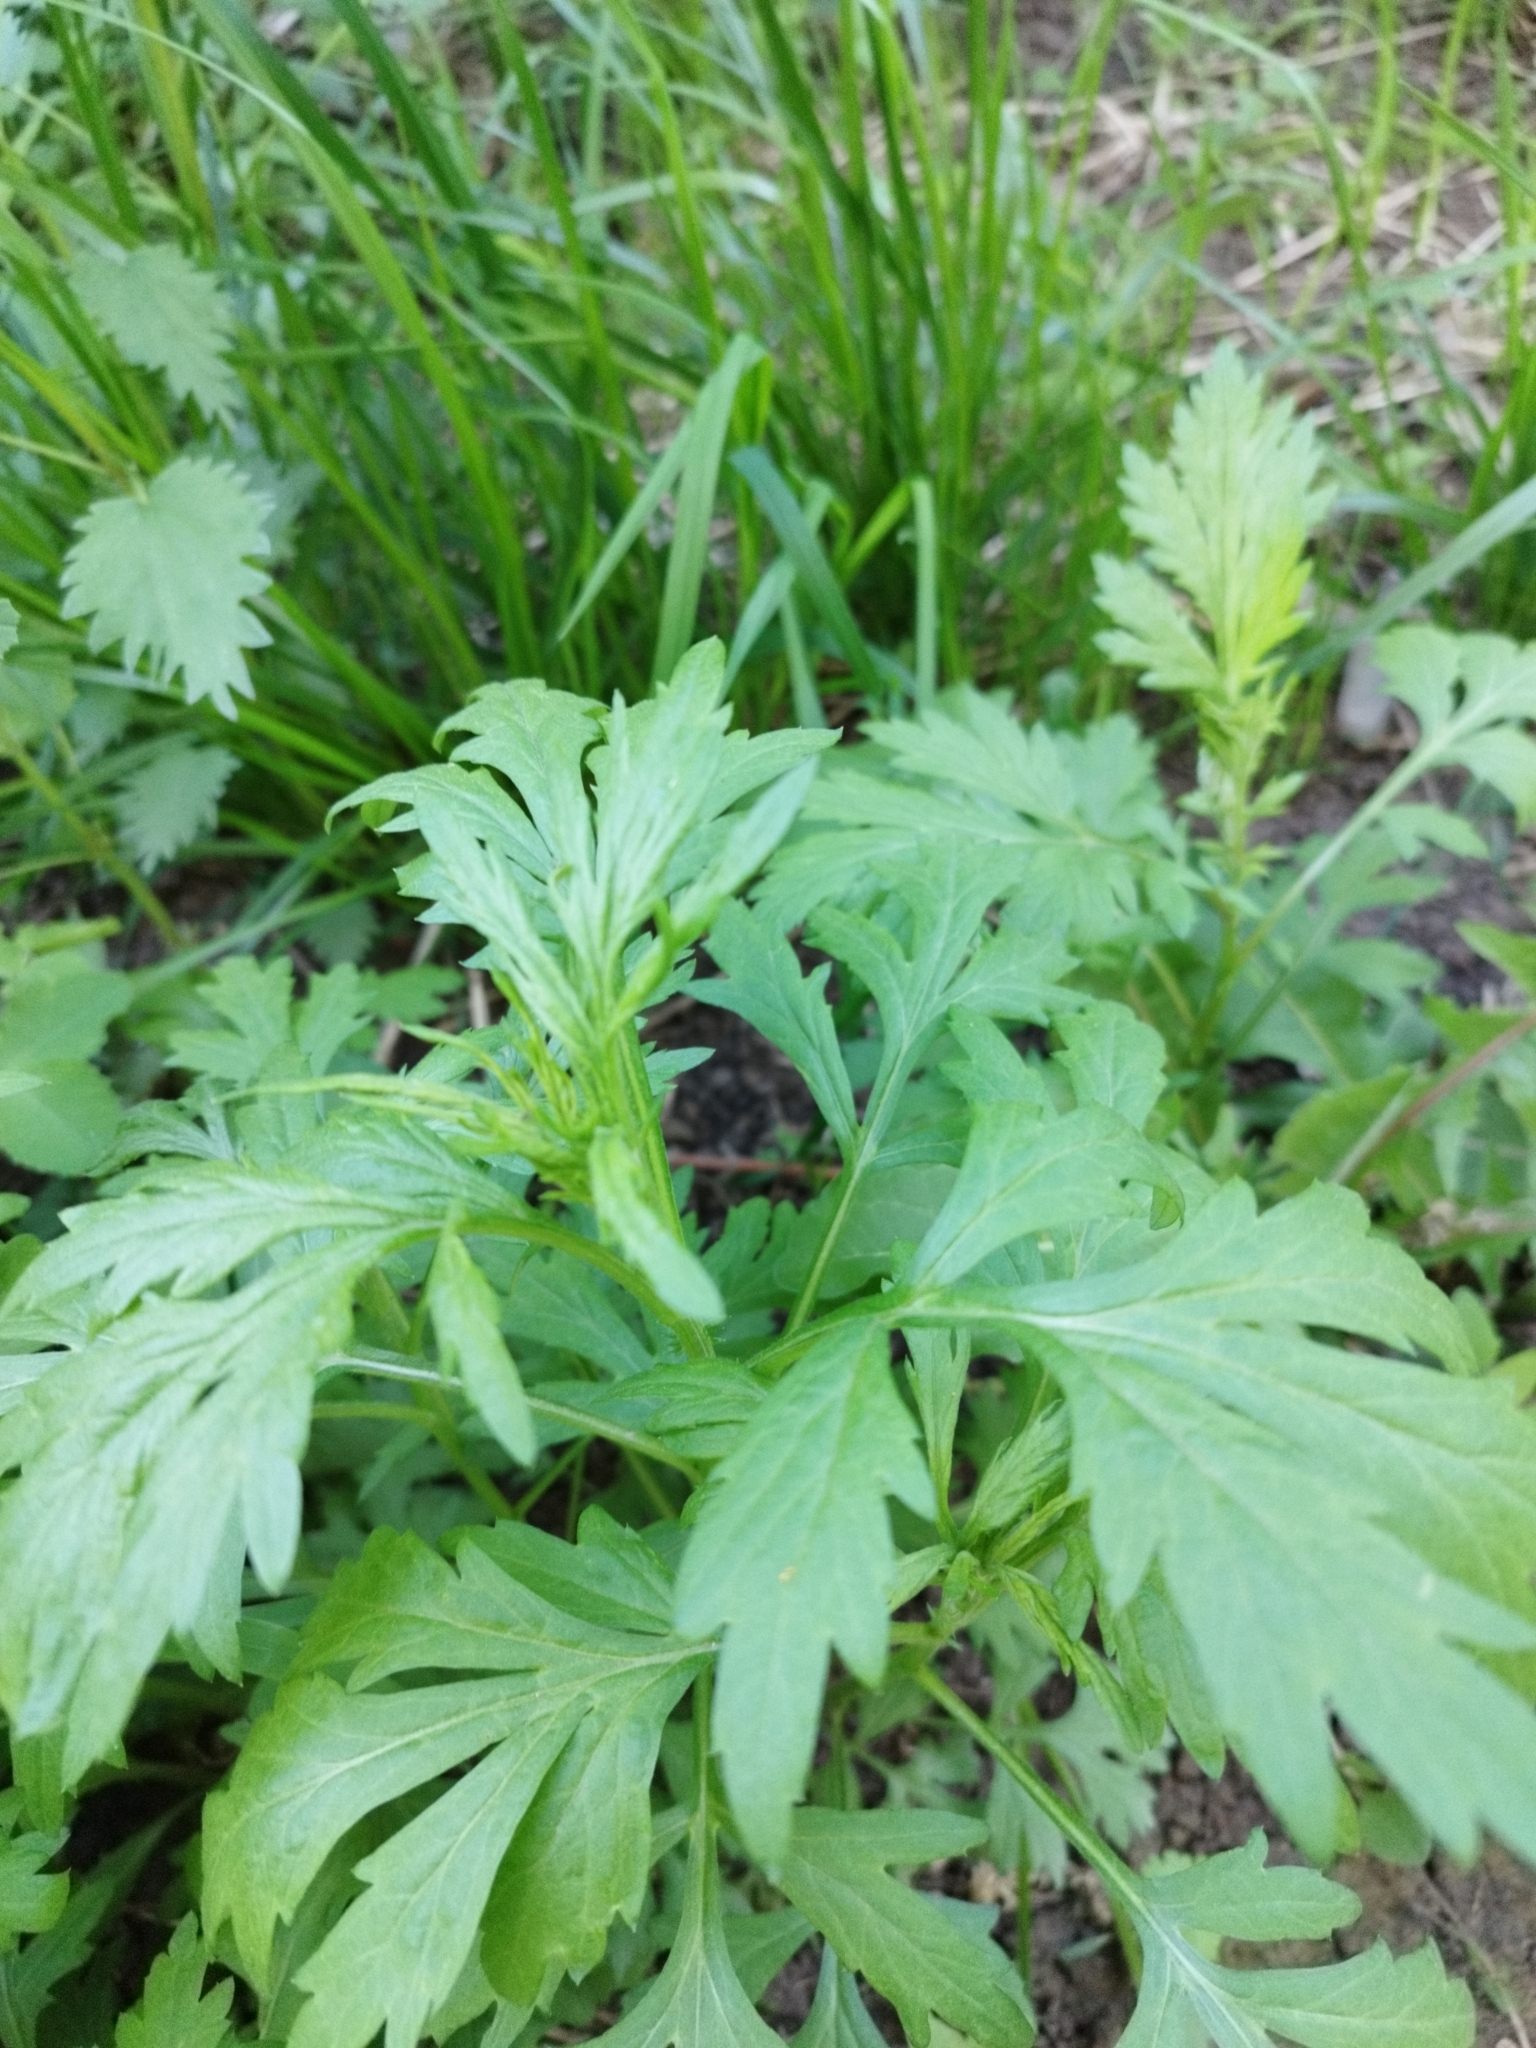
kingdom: Plantae
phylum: Tracheophyta
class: Magnoliopsida
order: Asterales
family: Asteraceae
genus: Artemisia
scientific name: Artemisia vulgaris
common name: Mugwort
